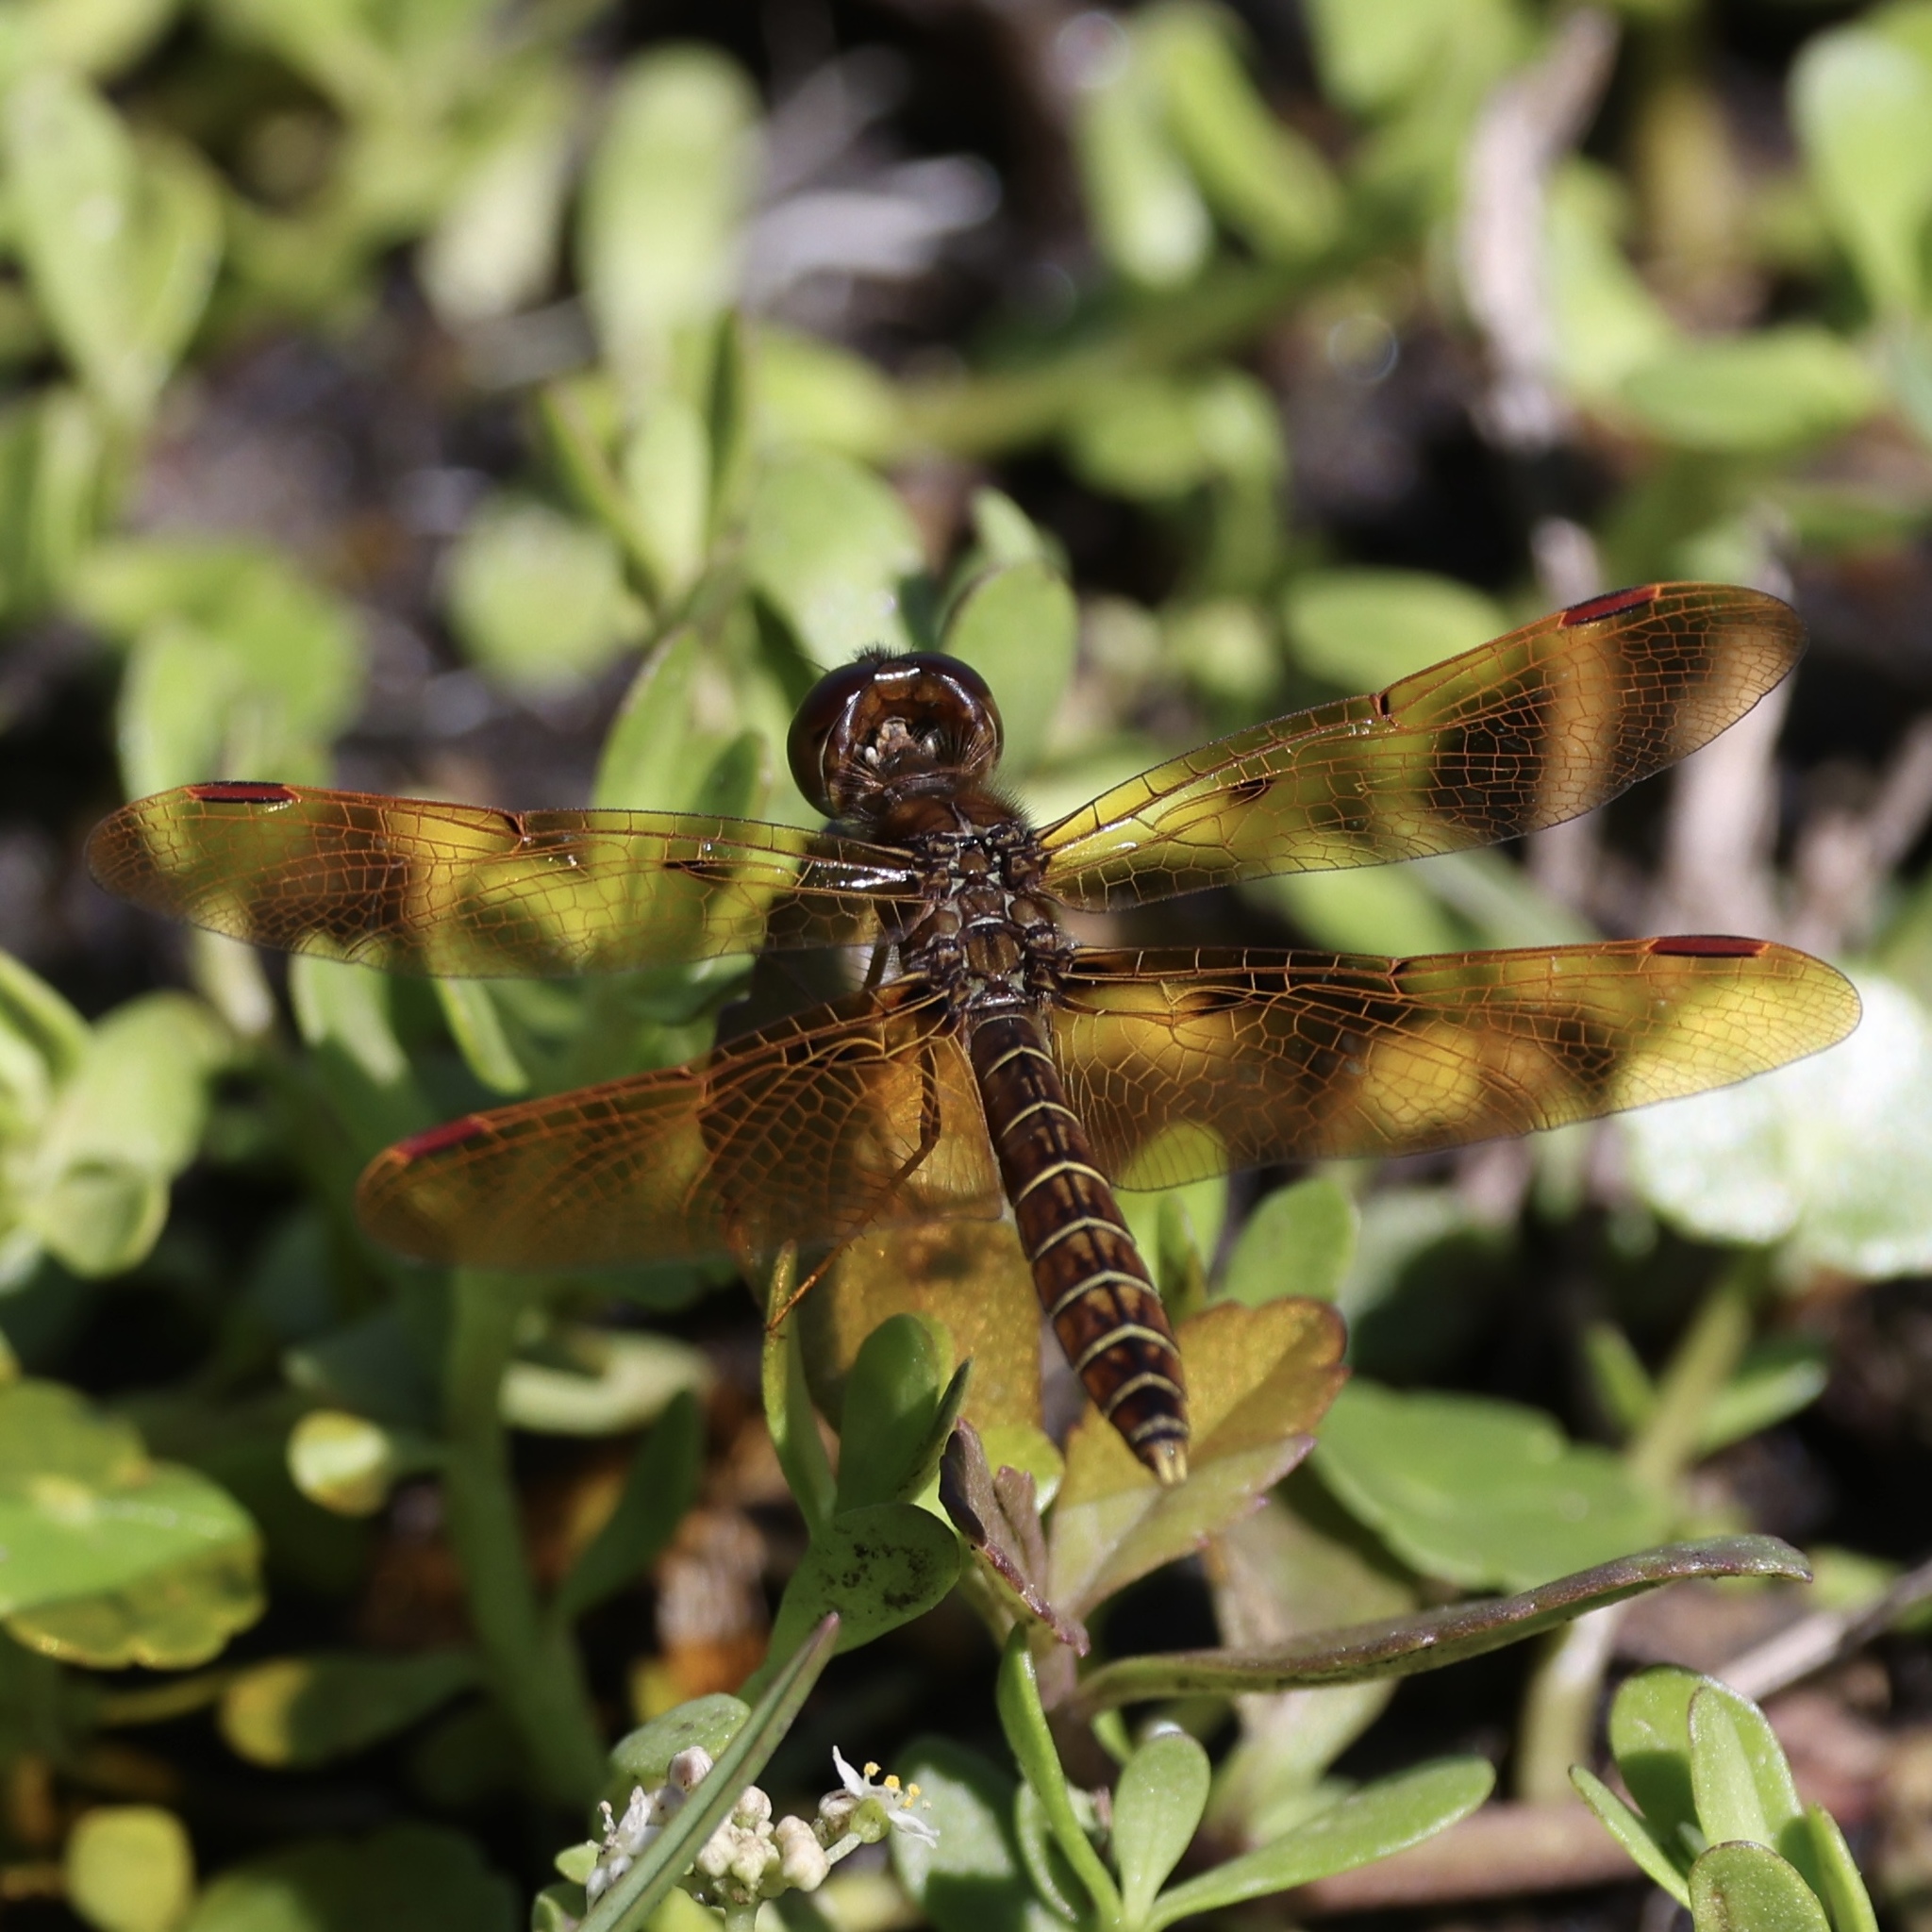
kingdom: Animalia
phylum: Arthropoda
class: Insecta
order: Odonata
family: Libellulidae
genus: Perithemis
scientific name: Perithemis tenera
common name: Eastern amberwing
